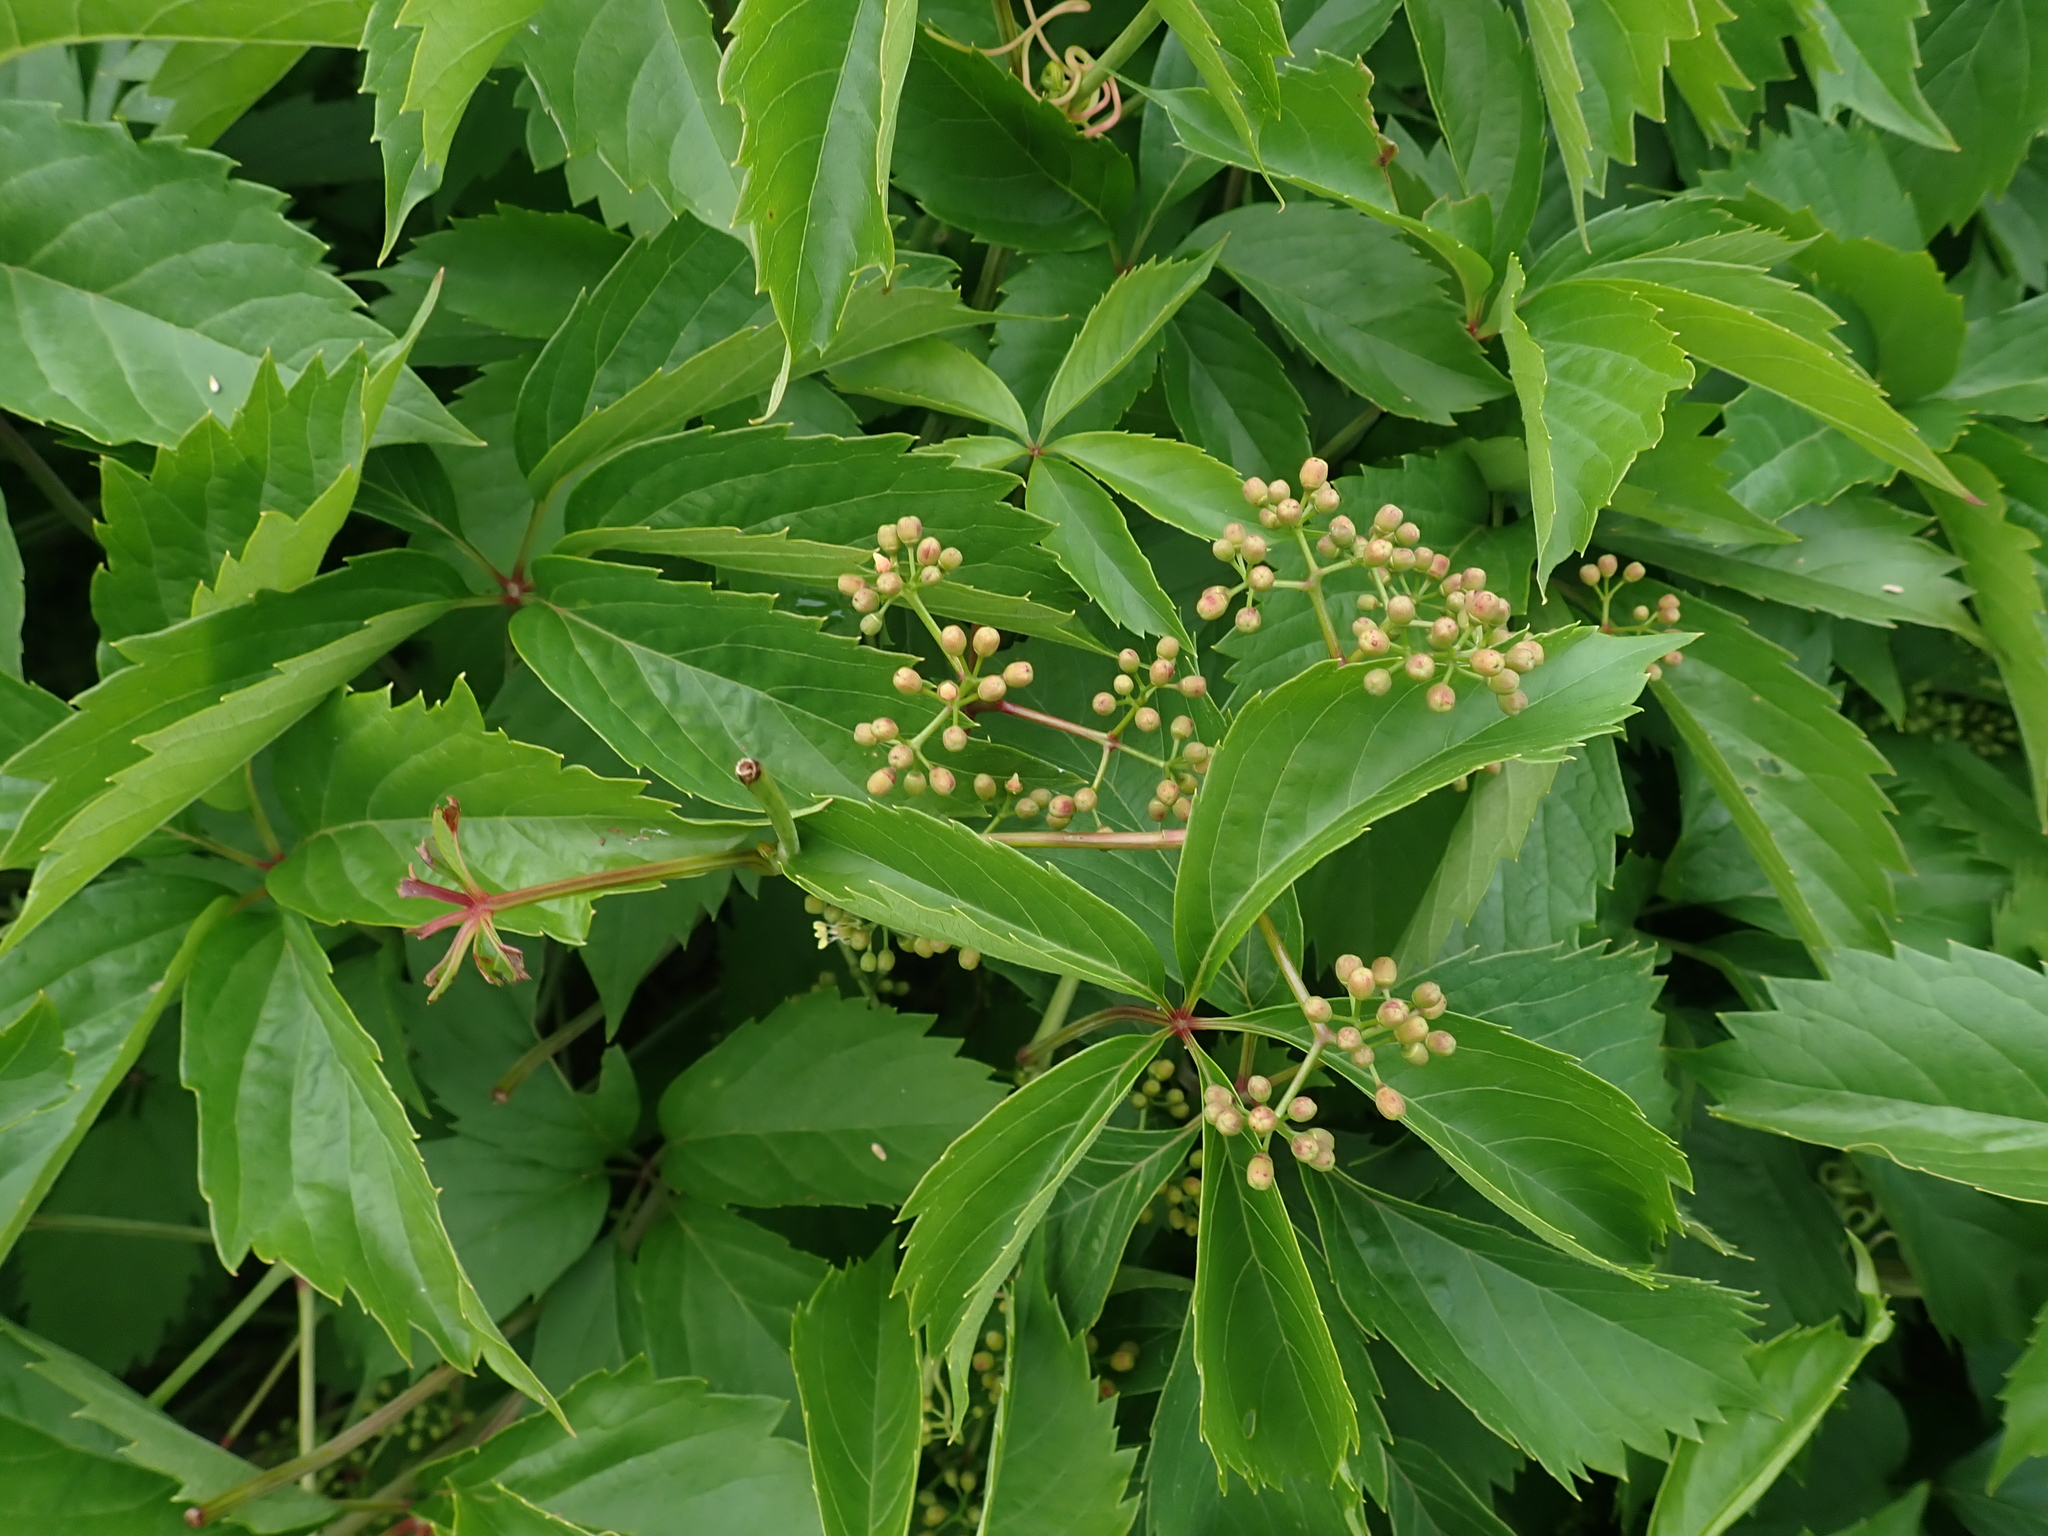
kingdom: Plantae
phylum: Tracheophyta
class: Magnoliopsida
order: Vitales
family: Vitaceae
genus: Parthenocissus
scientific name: Parthenocissus quinquefolia
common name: Virginia-creeper
